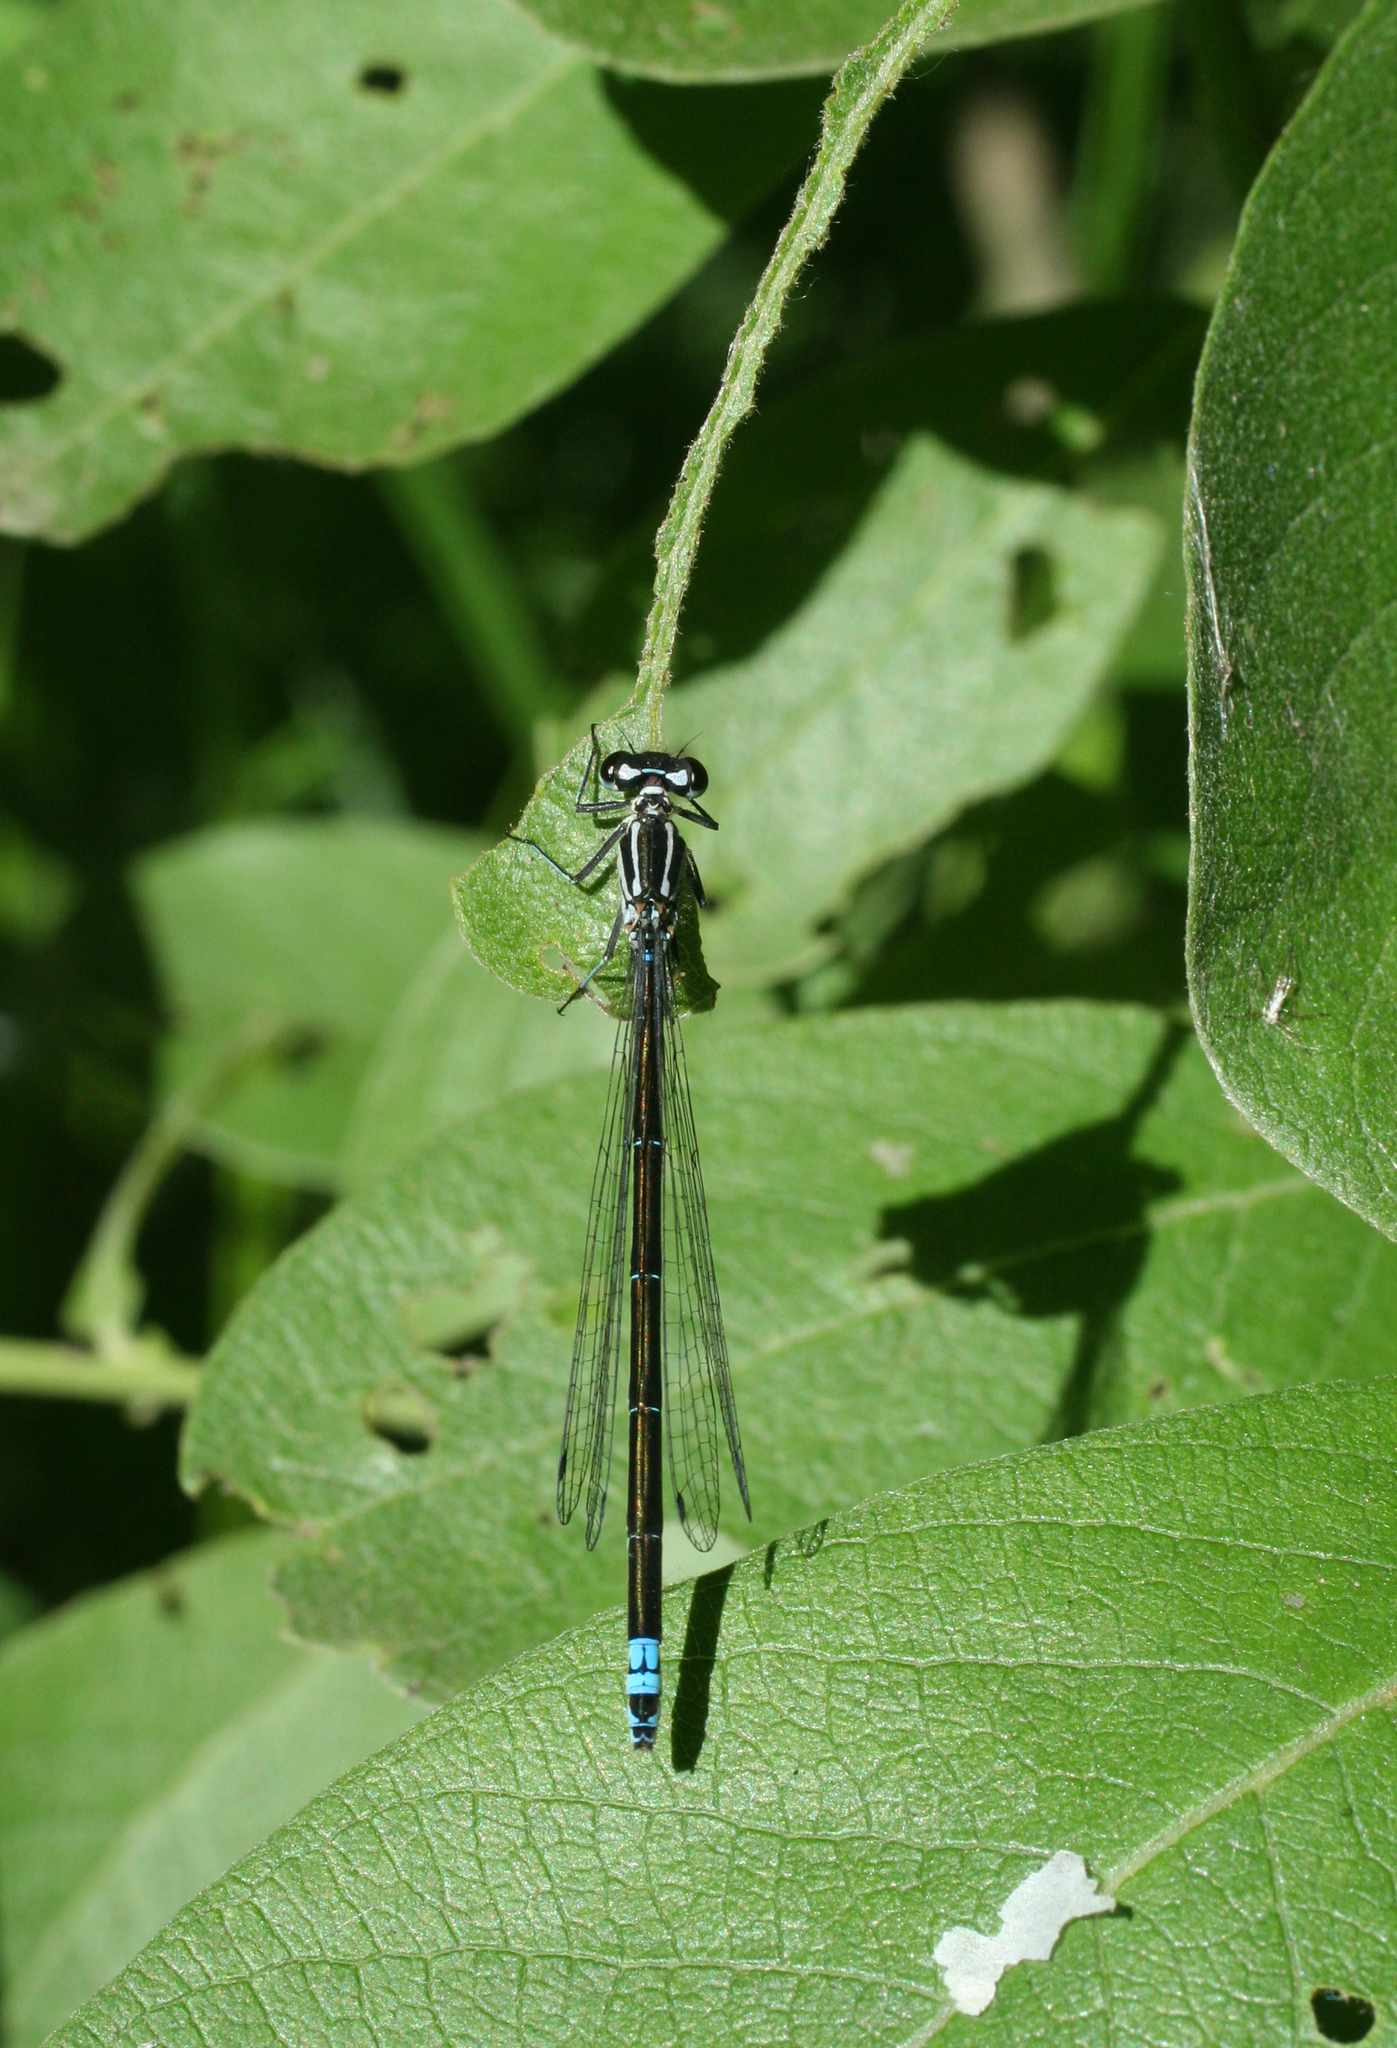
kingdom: Animalia
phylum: Arthropoda
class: Insecta
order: Odonata
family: Coenagrionidae
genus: Coenagrion
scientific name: Coenagrion pulchellum
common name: Variable bluet
